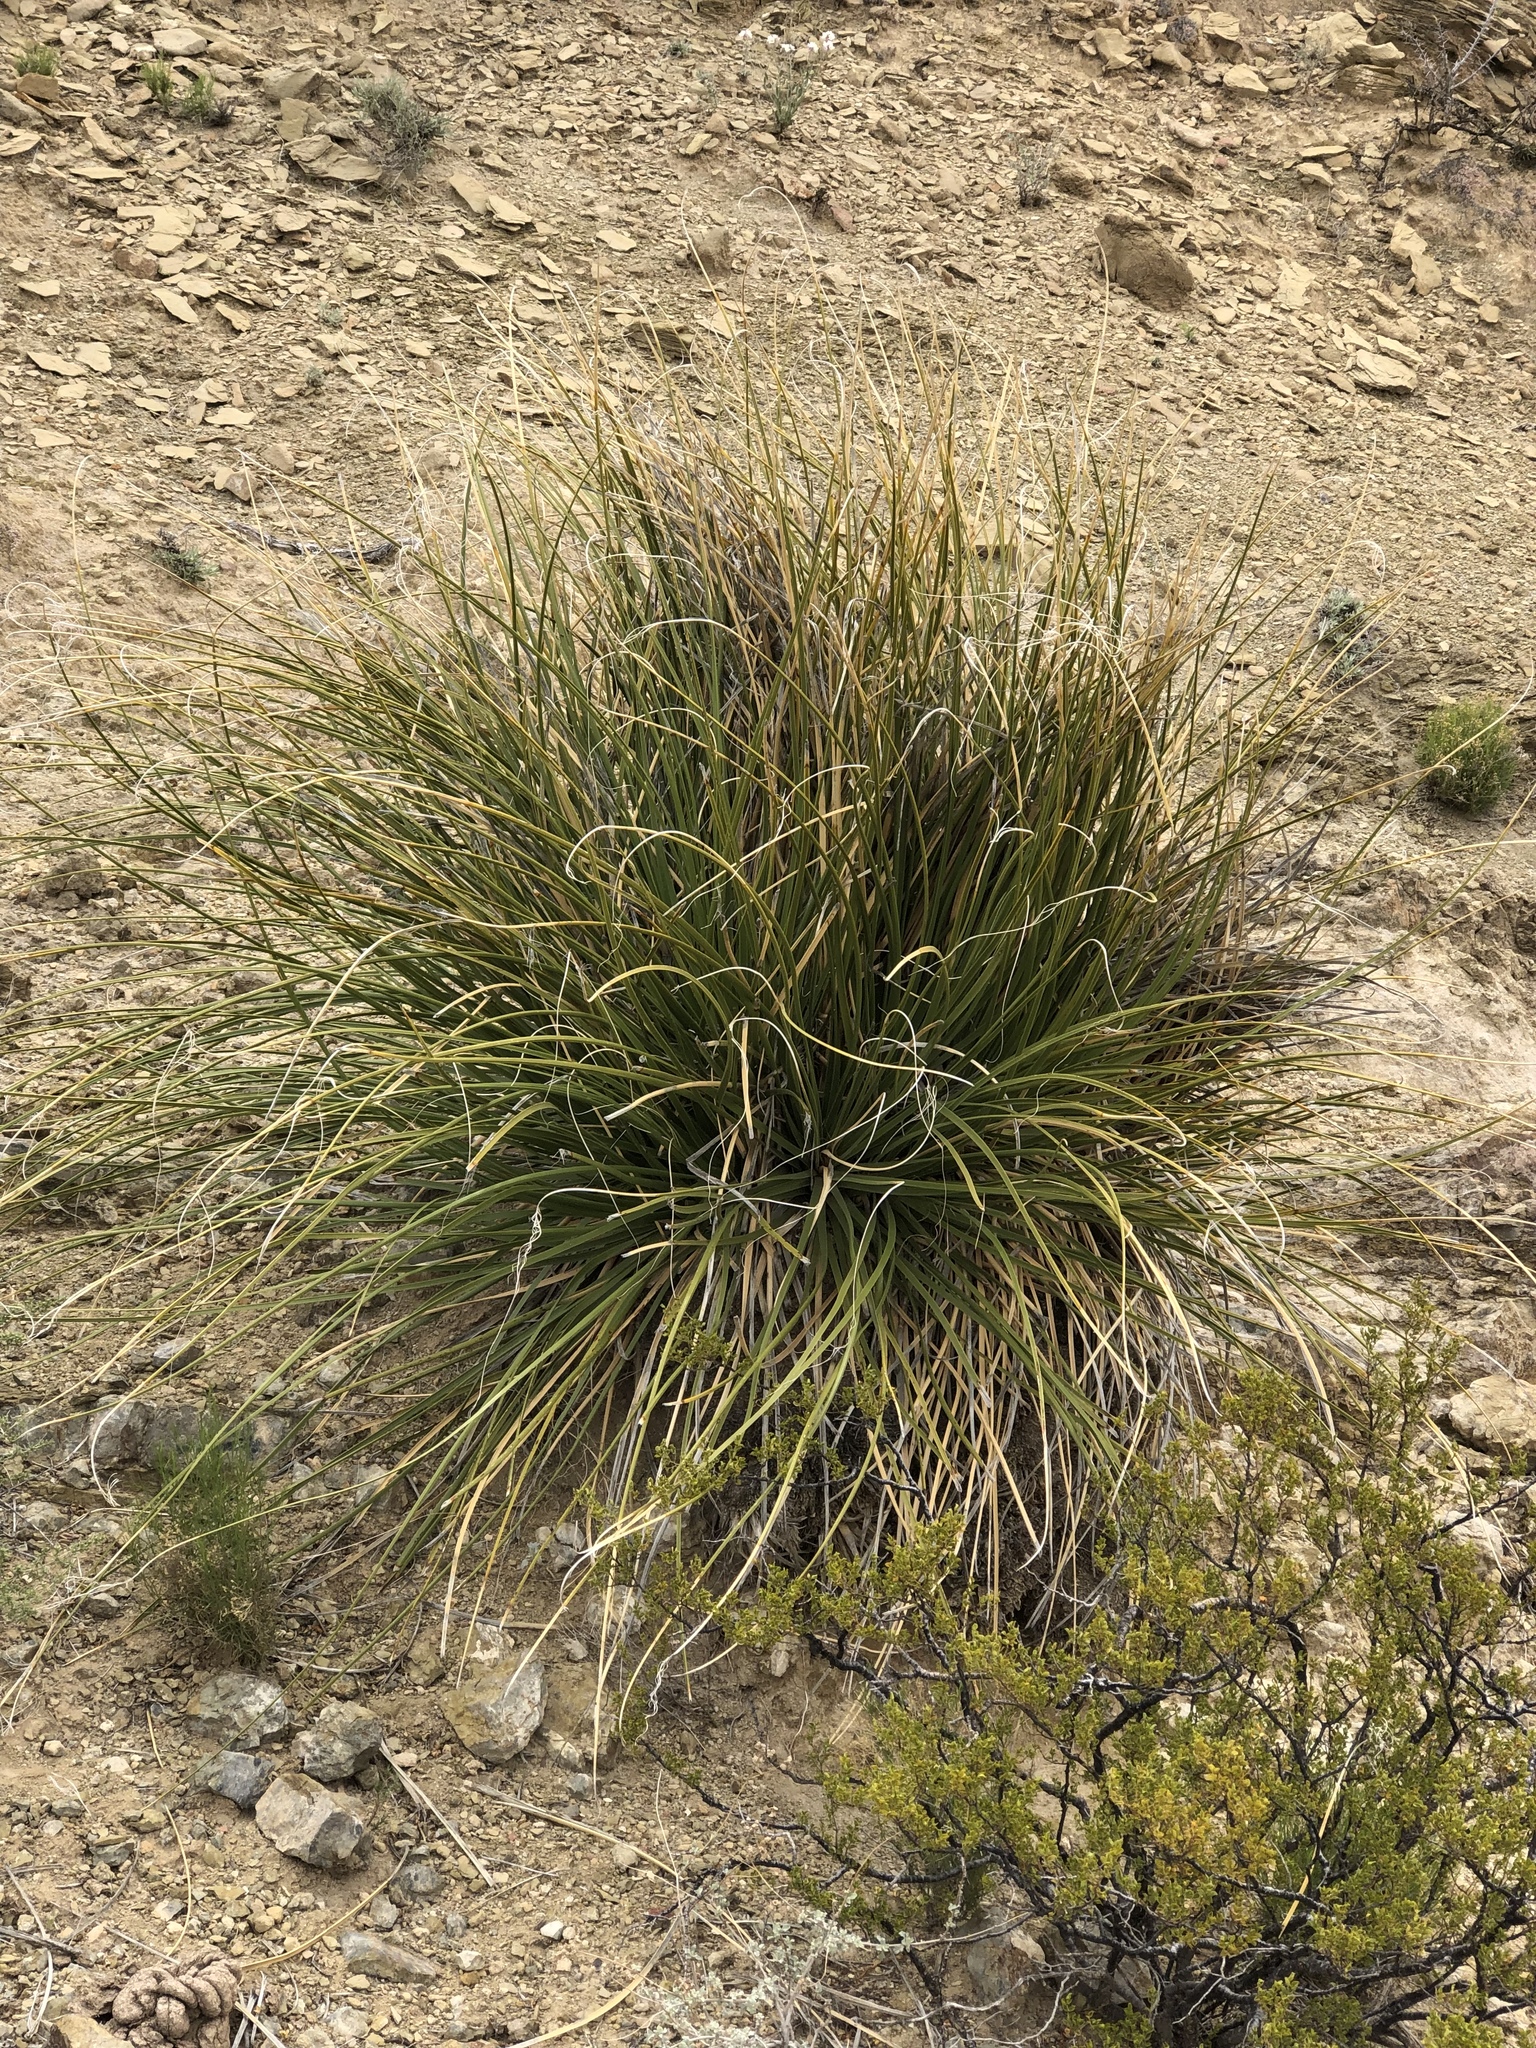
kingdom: Plantae
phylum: Tracheophyta
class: Liliopsida
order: Asparagales
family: Asparagaceae
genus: Nolina
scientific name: Nolina microcarpa
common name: Bear-grass
